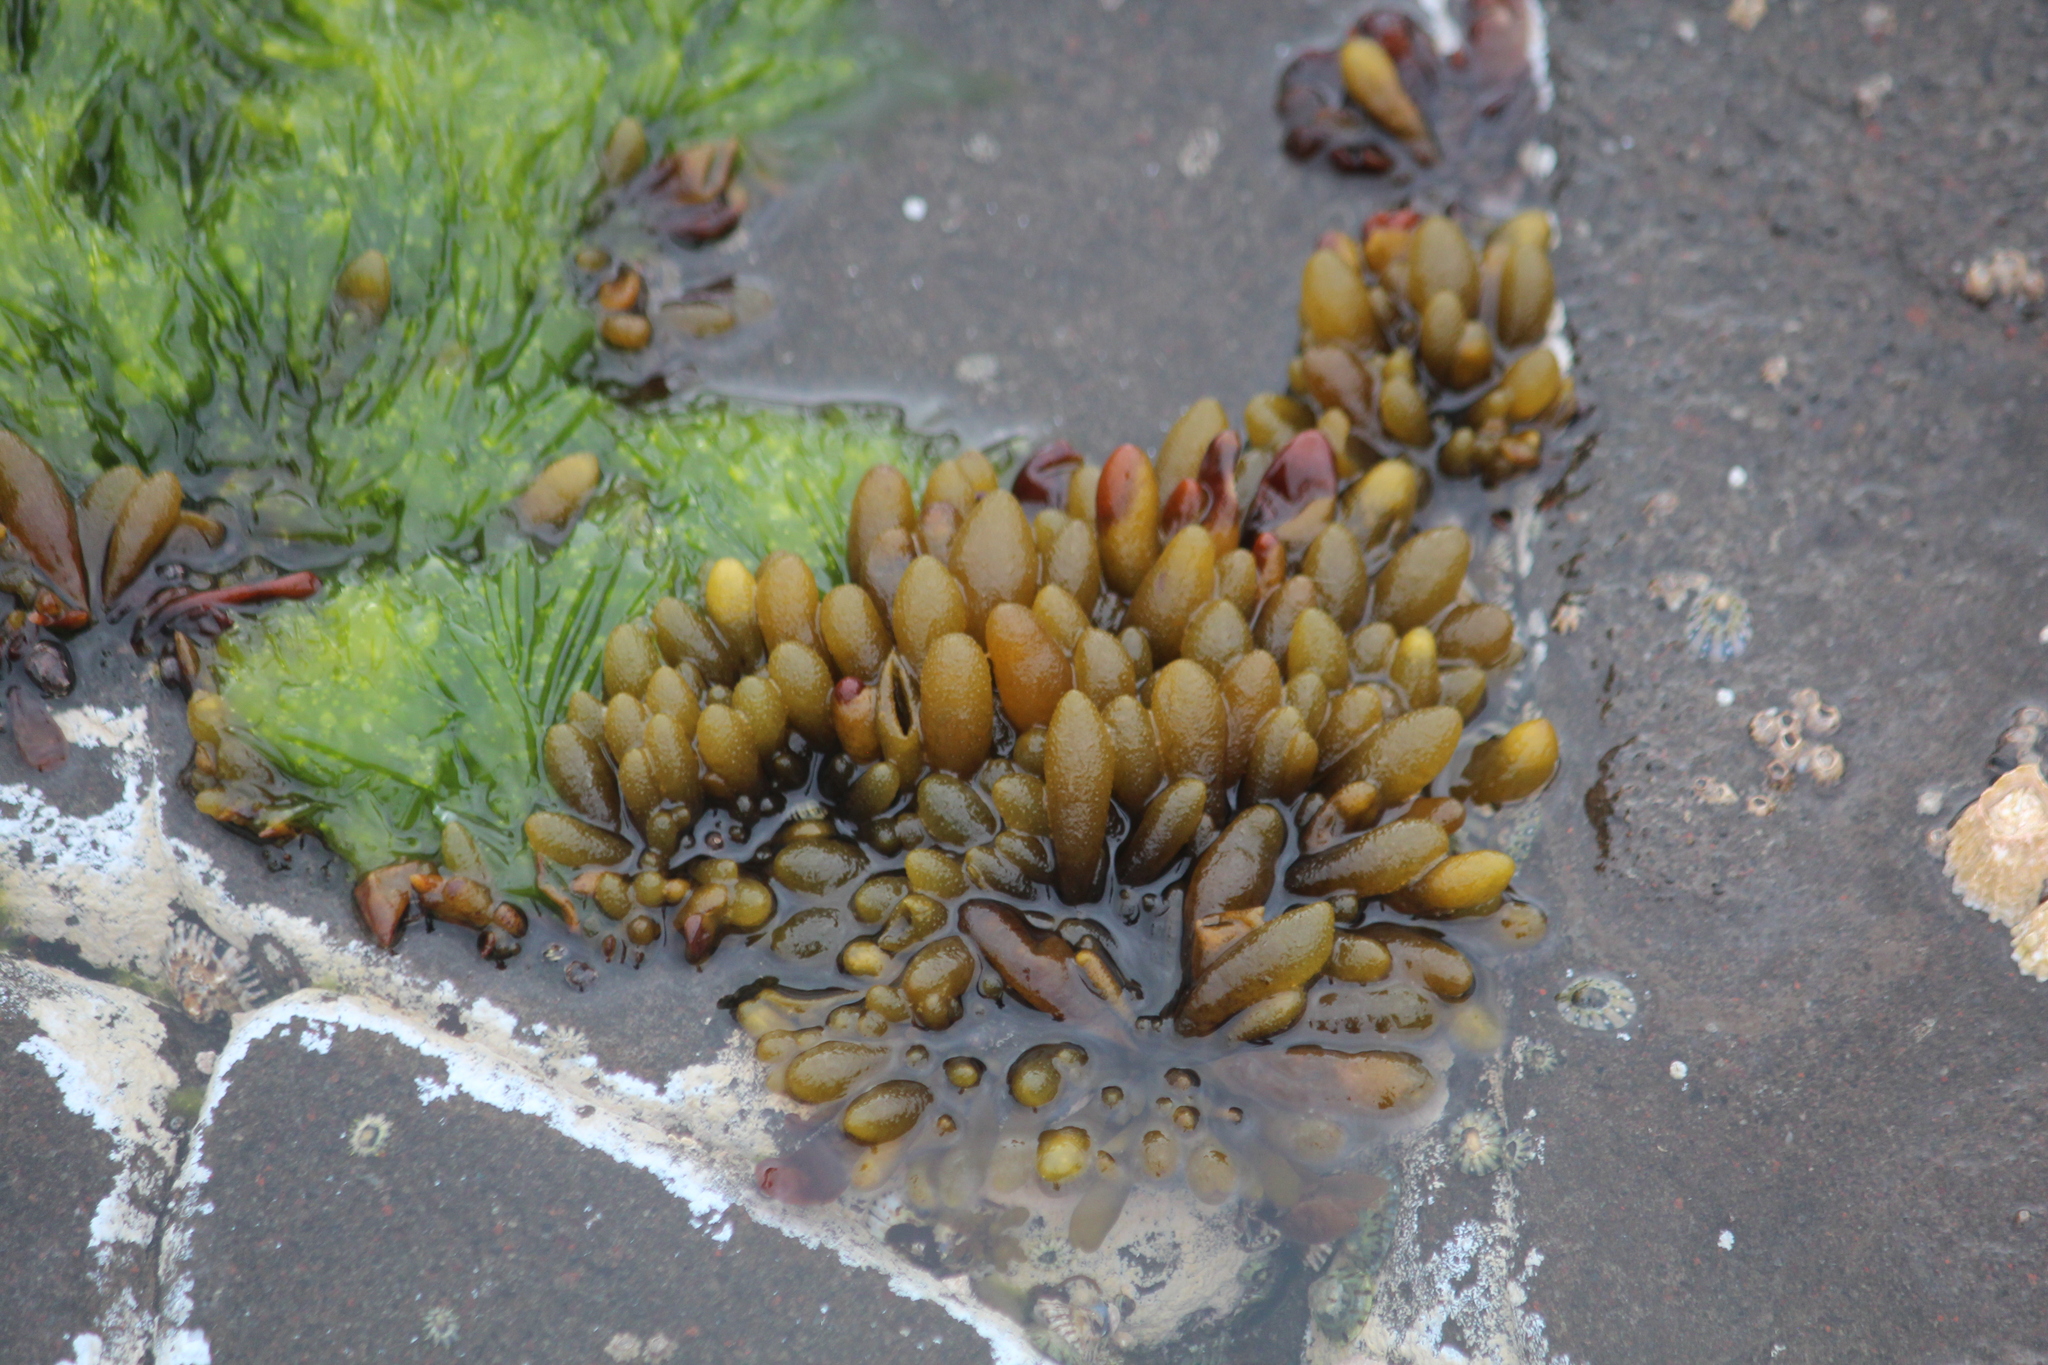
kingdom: Chromista
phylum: Ochrophyta
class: Phaeophyceae
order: Ectocarpales
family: Adenocystaceae
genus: Adenocystis
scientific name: Adenocystis utricularis
